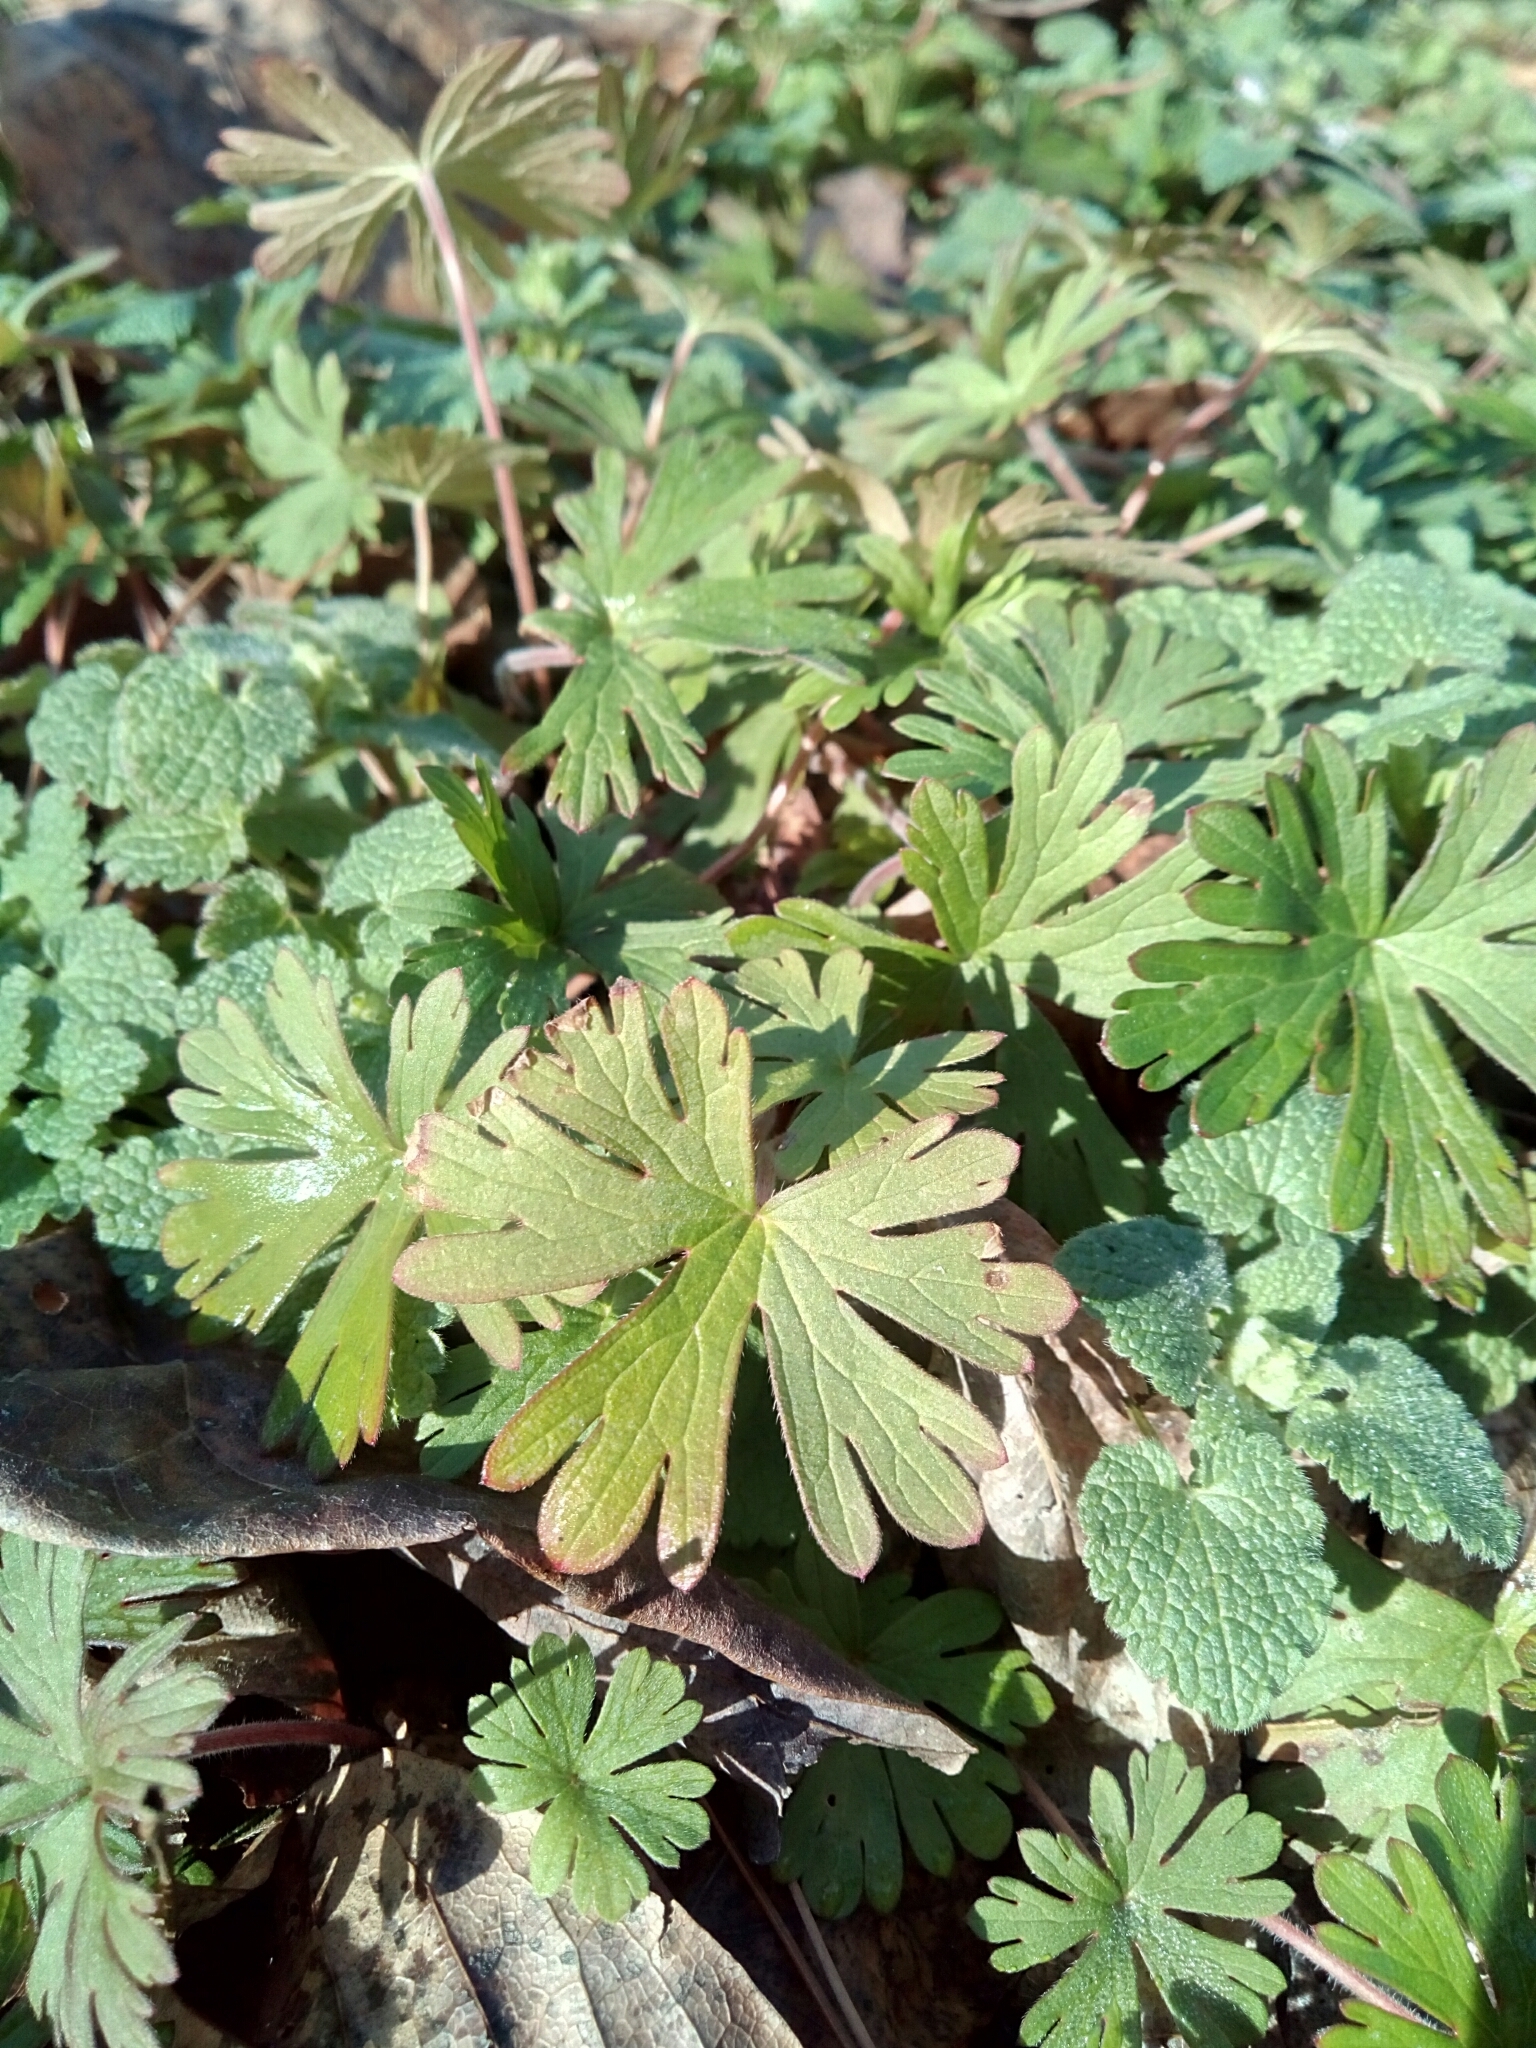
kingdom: Plantae
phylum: Tracheophyta
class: Magnoliopsida
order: Geraniales
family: Geraniaceae
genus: Geranium
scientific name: Geranium carolinianum
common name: Carolina crane's-bill
